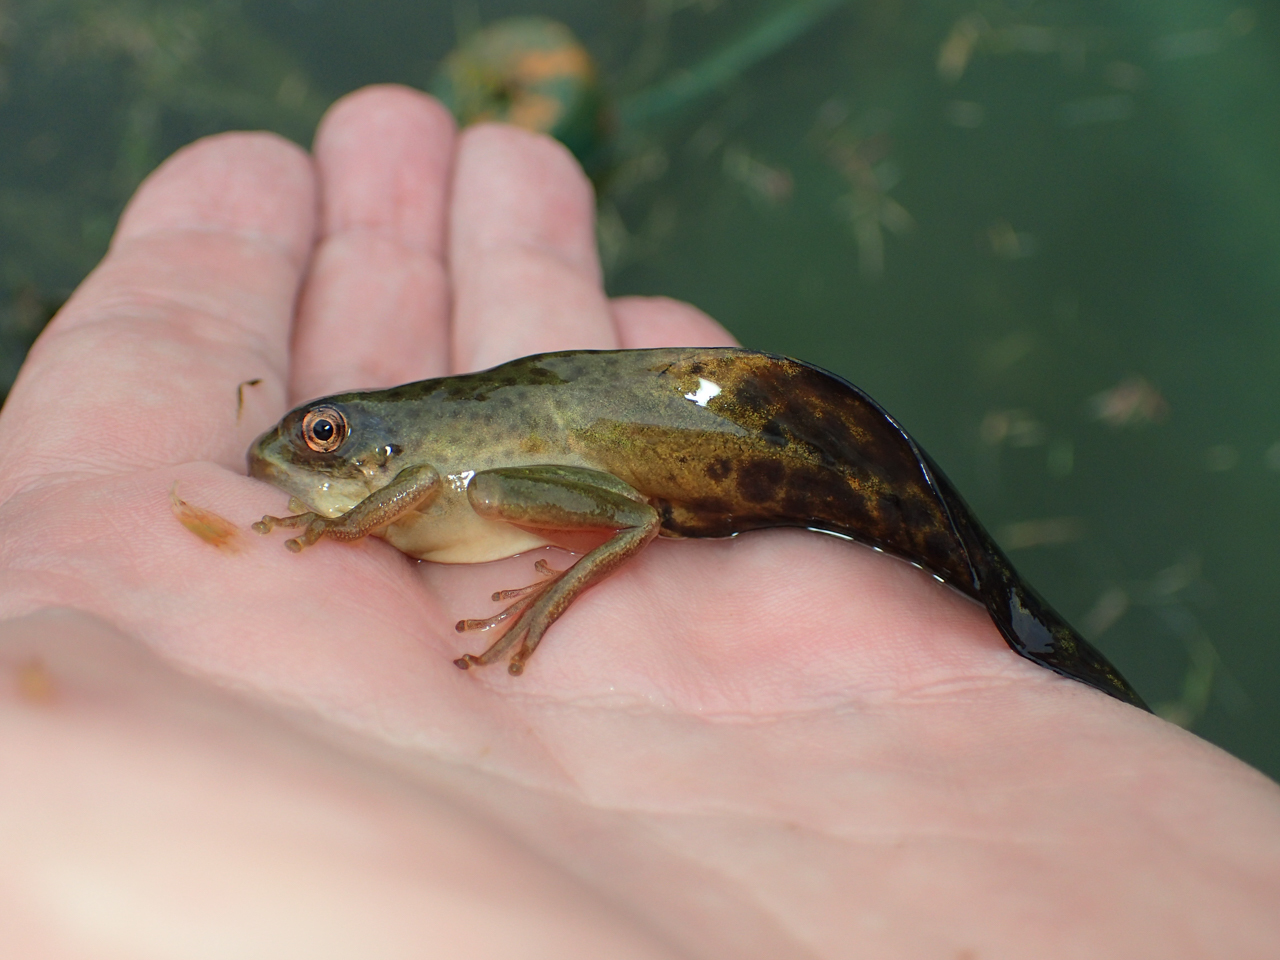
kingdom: Animalia
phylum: Chordata
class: Amphibia
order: Anura
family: Hylidae
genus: Dryophytes
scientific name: Dryophytes gratiosus
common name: Barking treefrog
